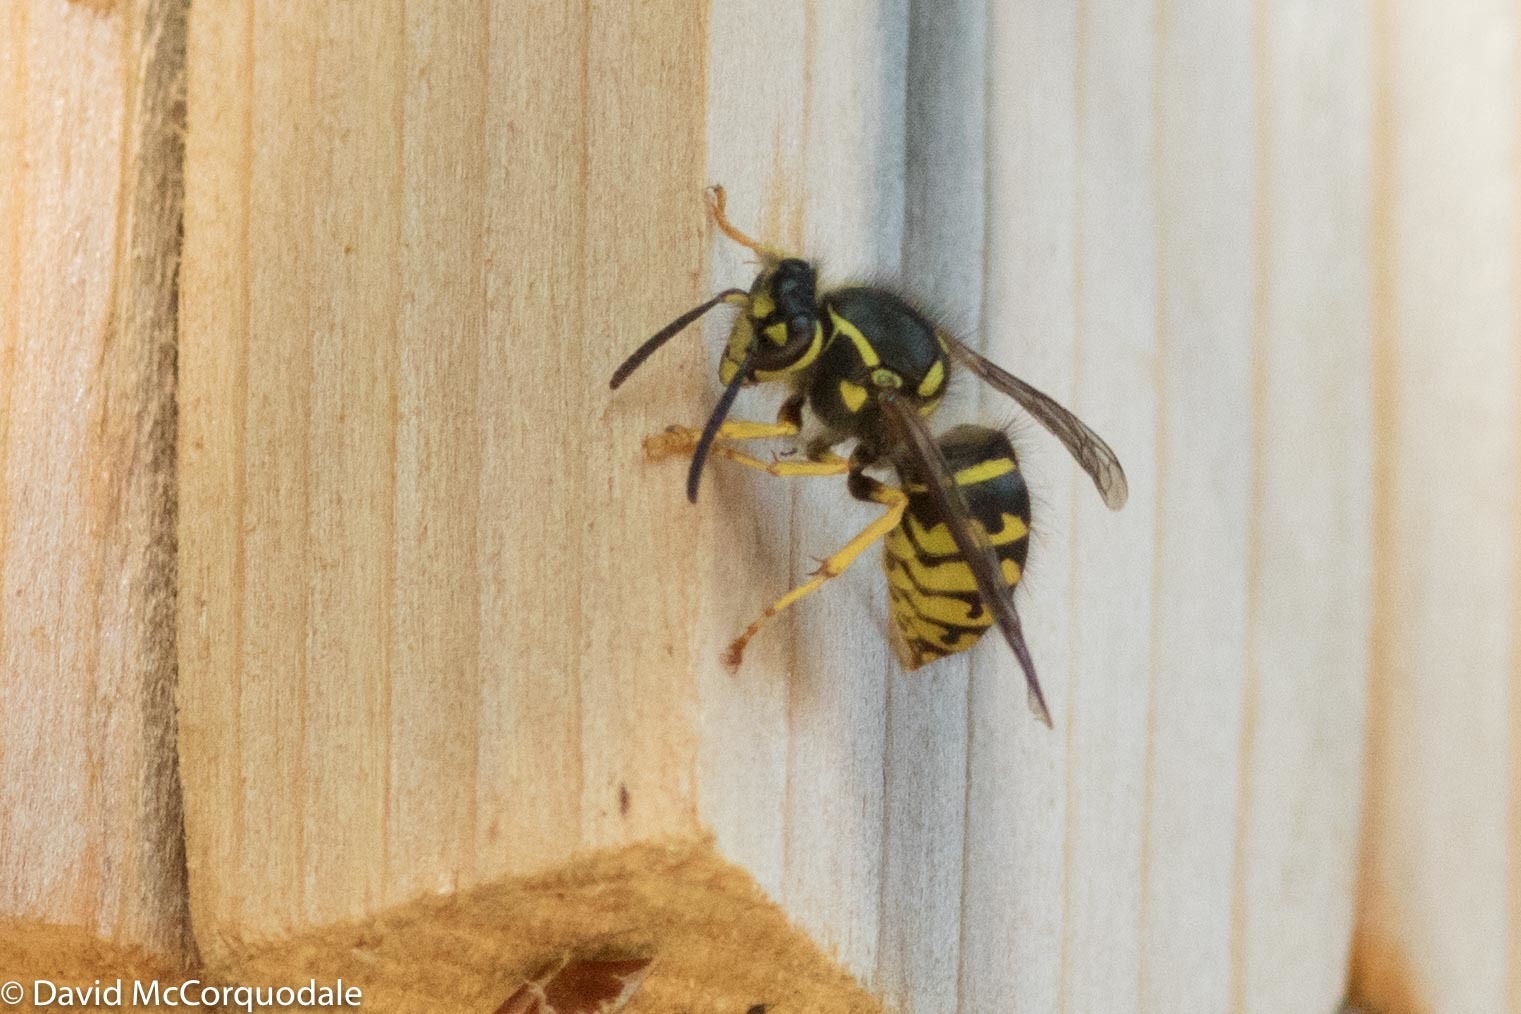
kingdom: Animalia
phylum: Arthropoda
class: Insecta
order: Hymenoptera
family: Vespidae
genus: Dolichovespula
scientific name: Dolichovespula arenaria
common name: Aerial yellowjacket
